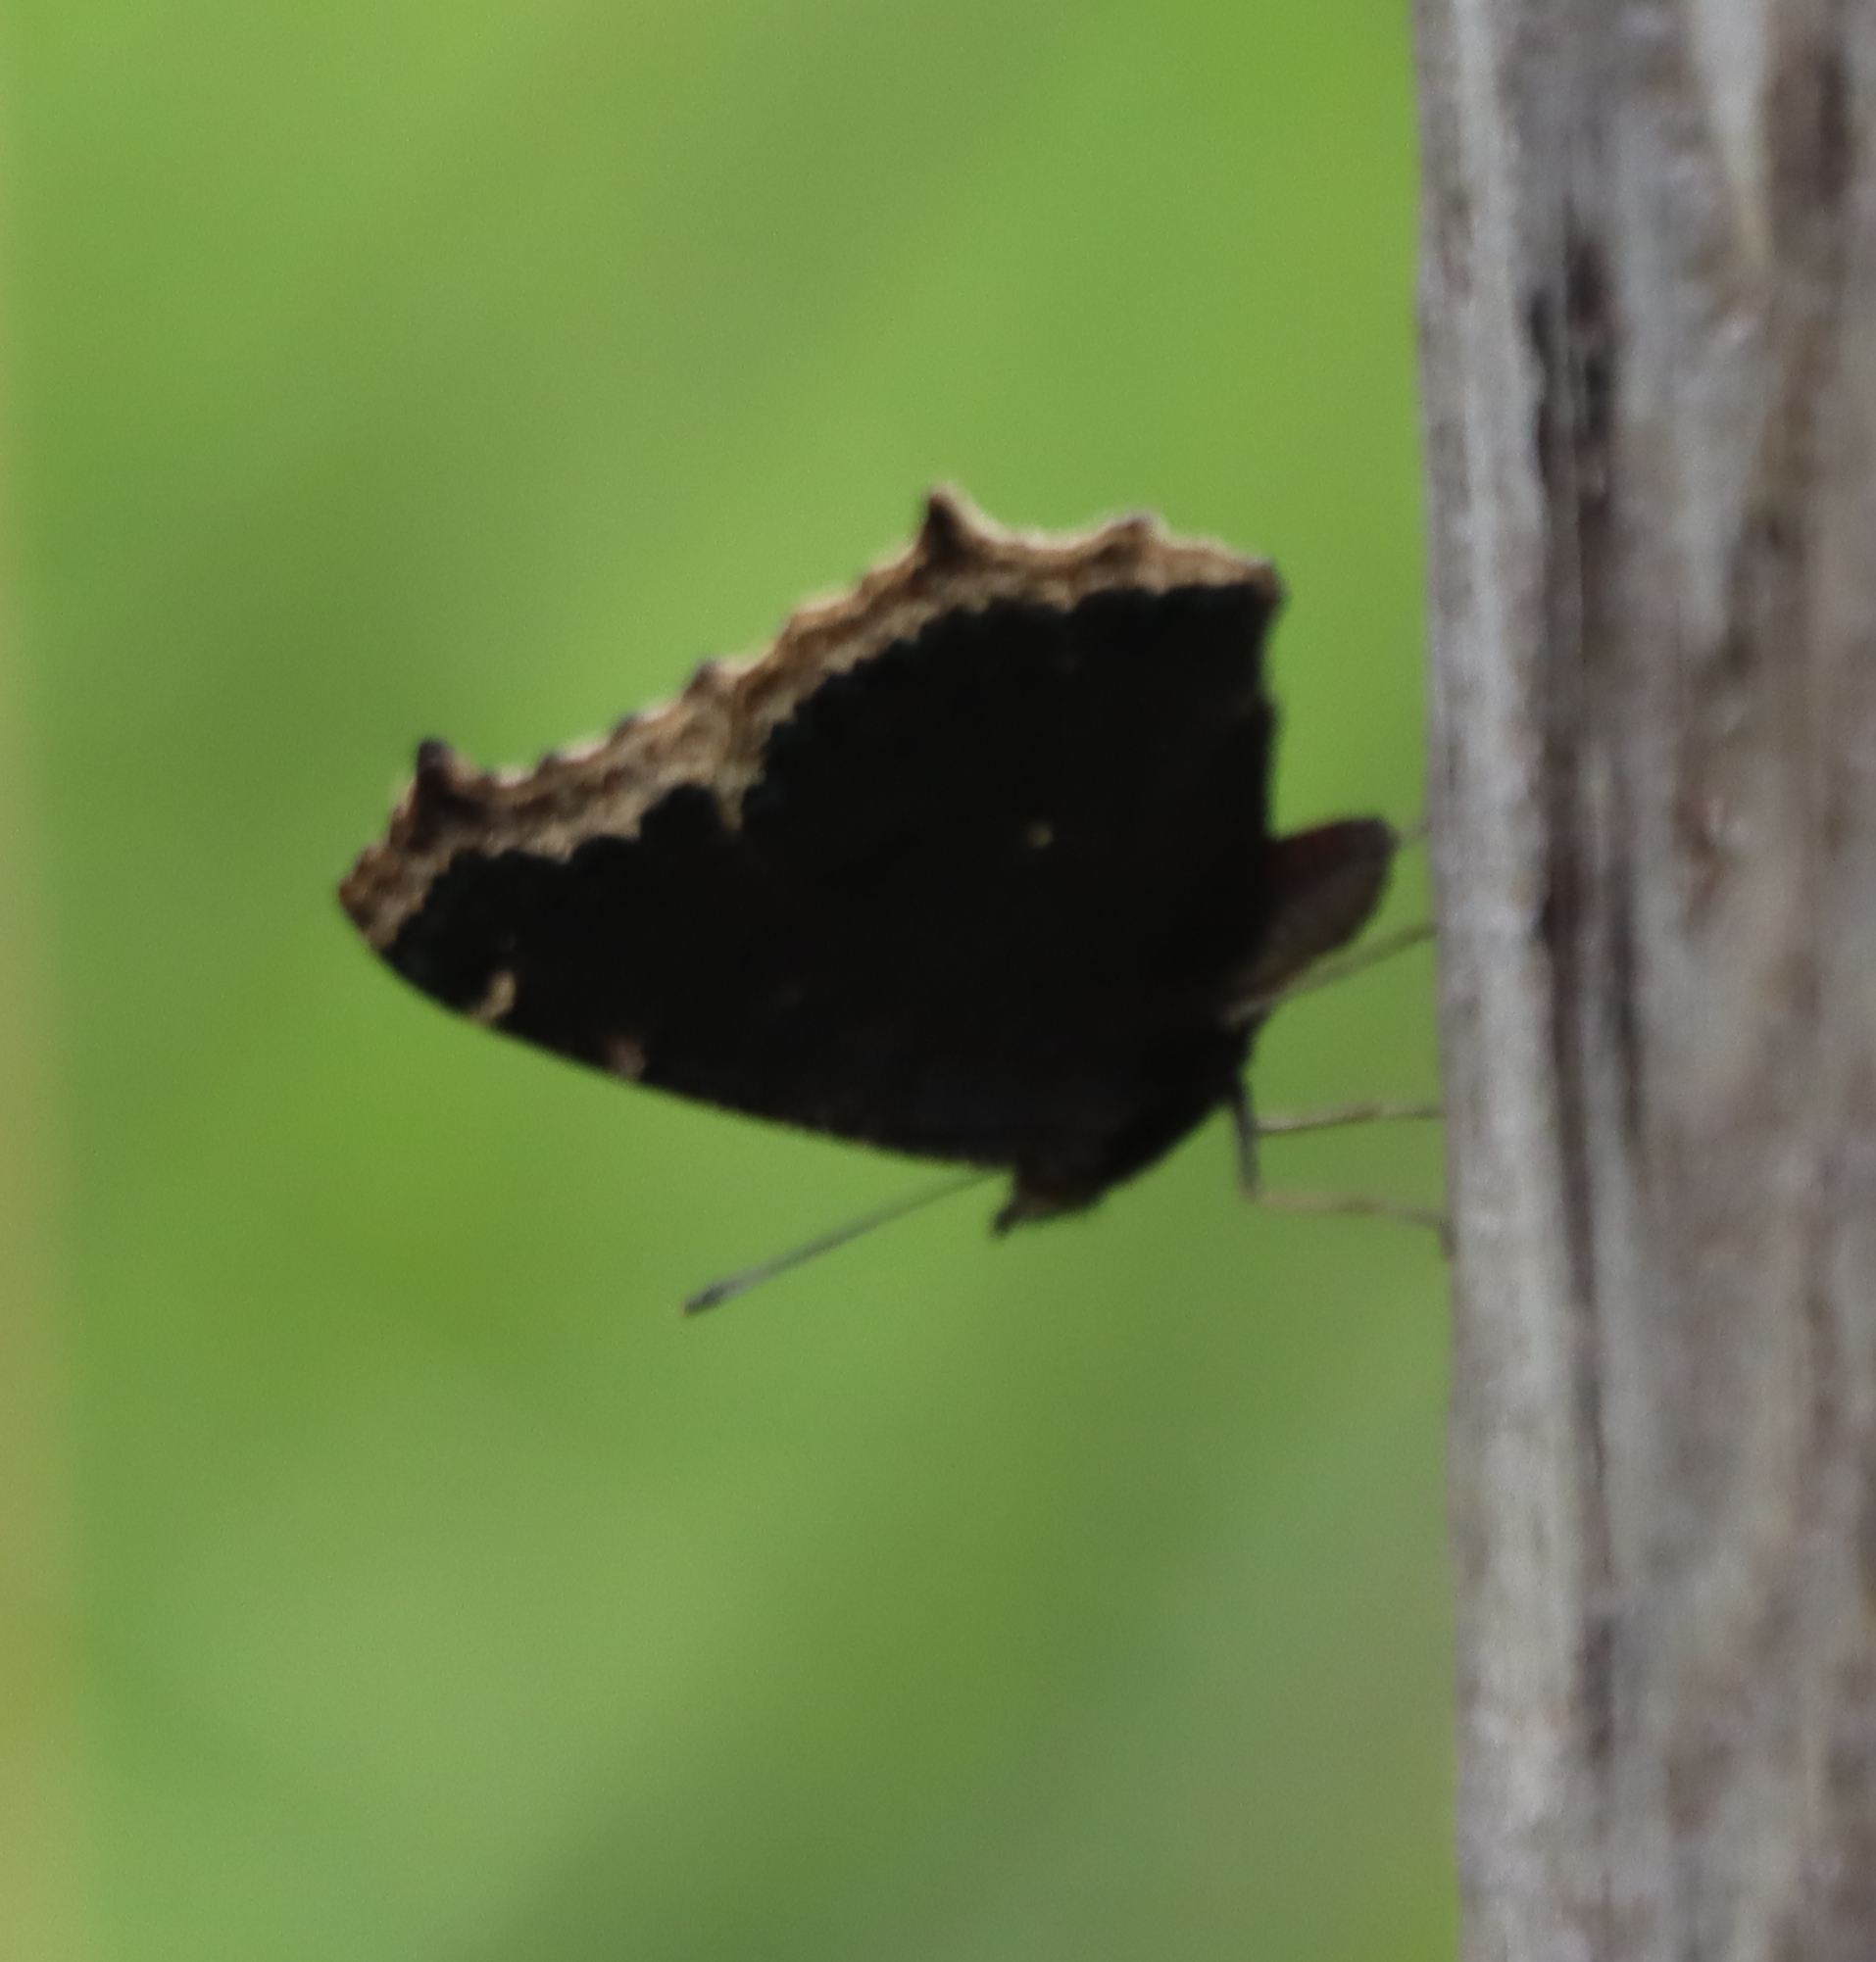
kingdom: Animalia
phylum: Arthropoda
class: Insecta
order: Lepidoptera
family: Nymphalidae
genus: Nymphalis
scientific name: Nymphalis antiopa
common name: Camberwell beauty
